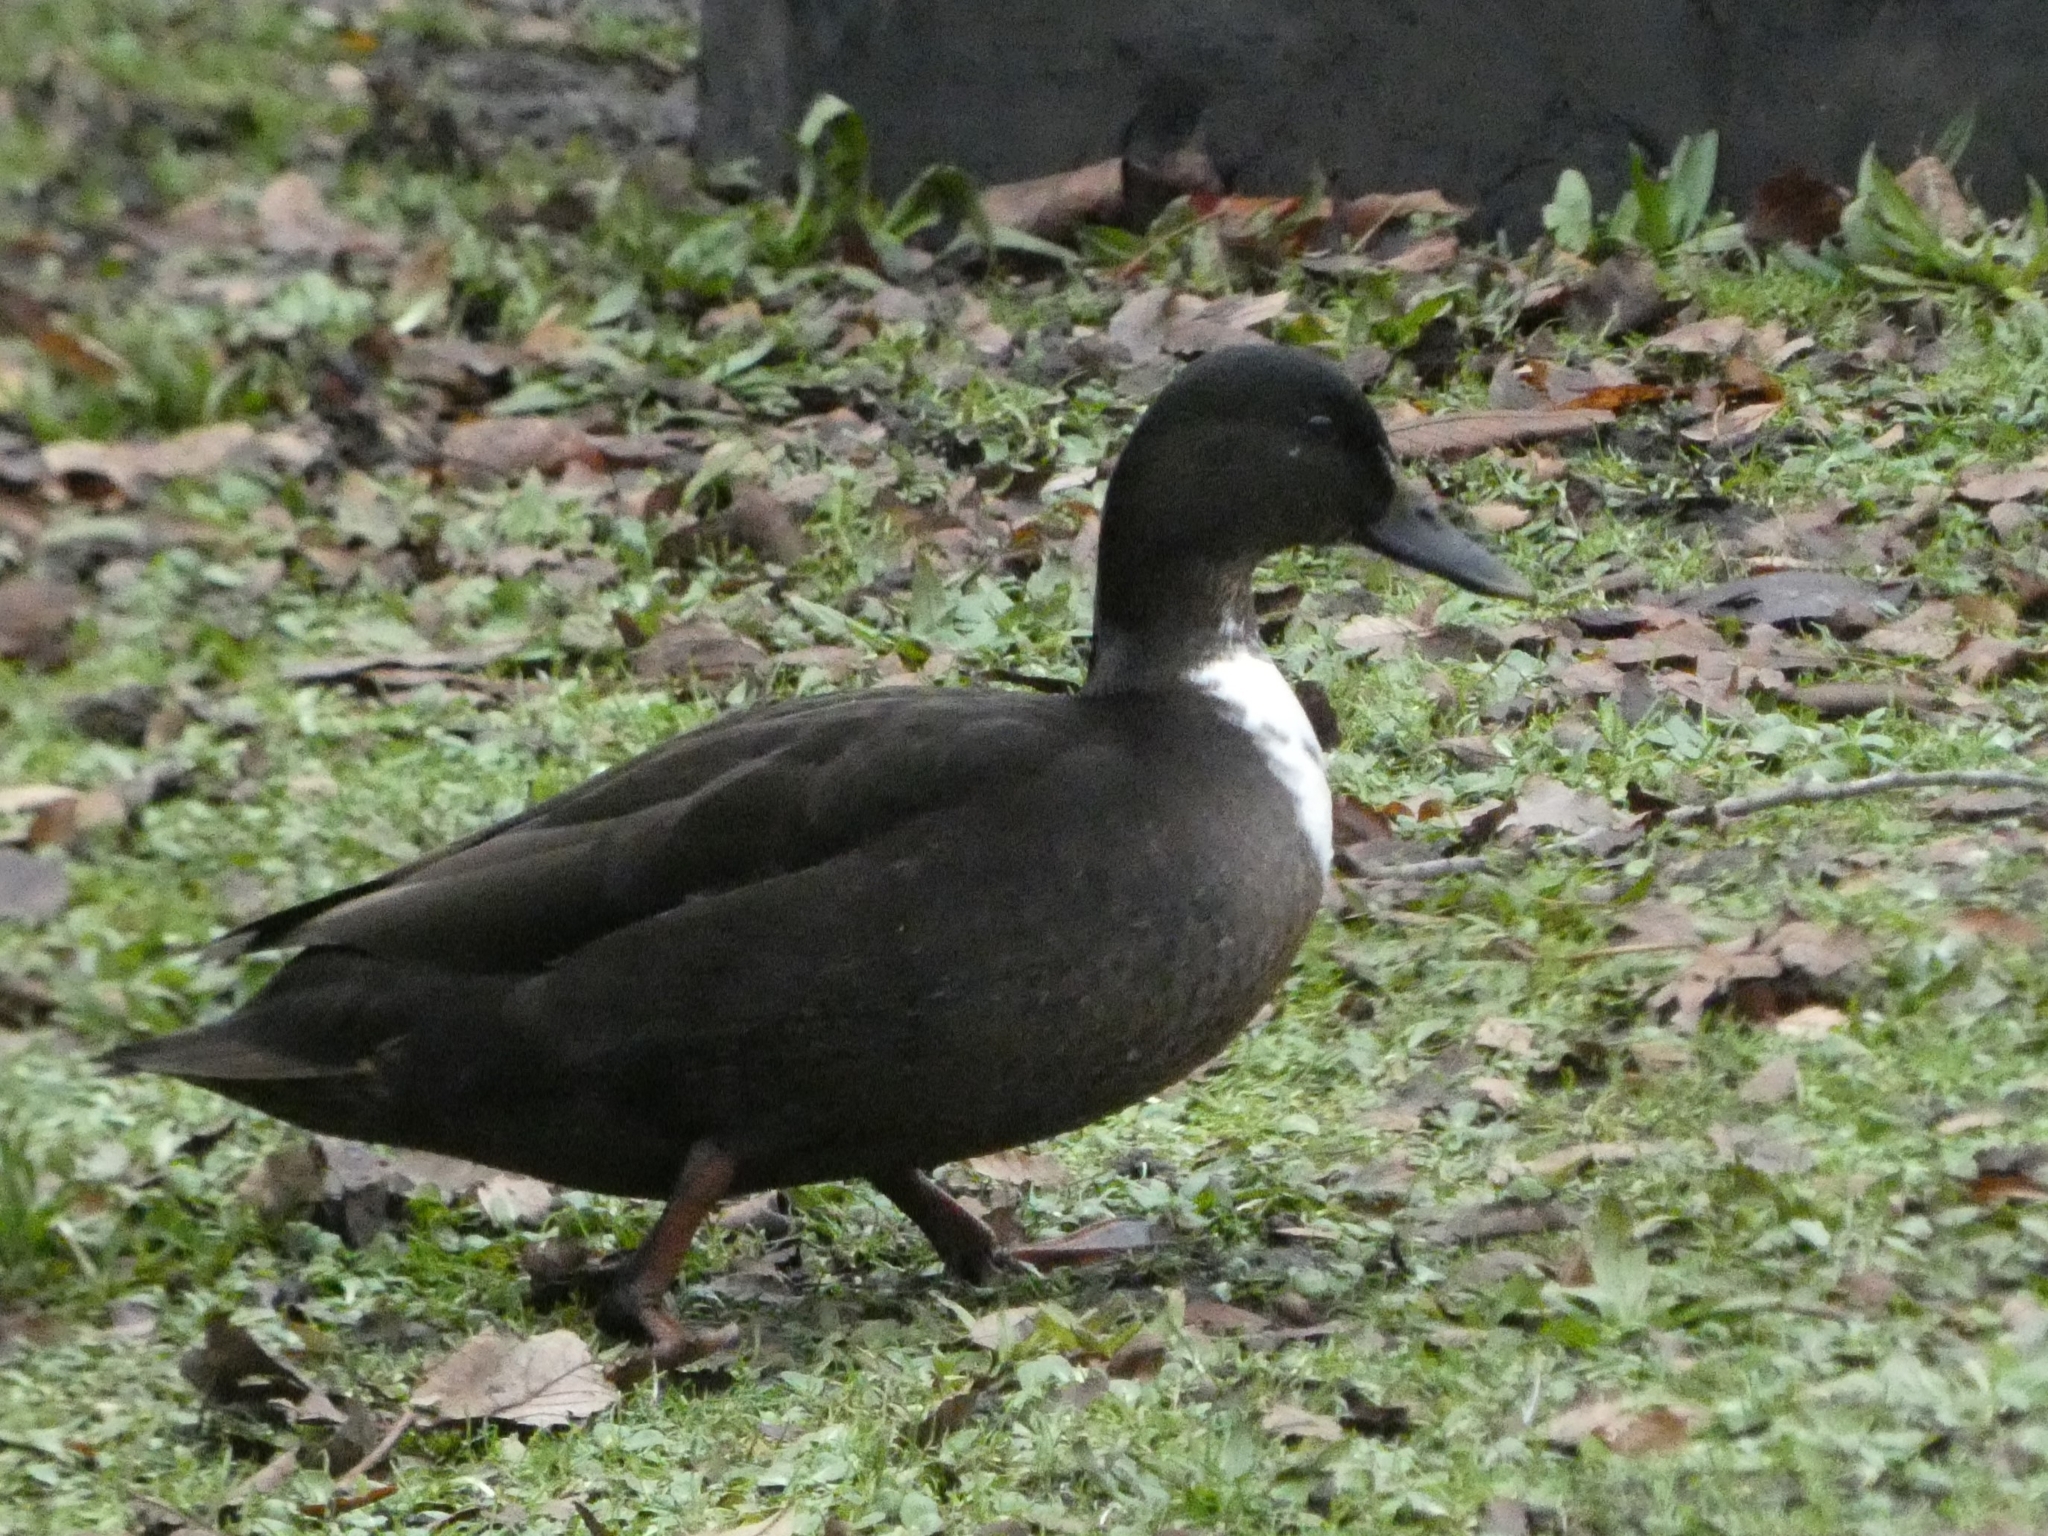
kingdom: Animalia
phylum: Chordata
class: Aves
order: Anseriformes
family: Anatidae
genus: Anas
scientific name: Anas platyrhynchos
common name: Mallard
